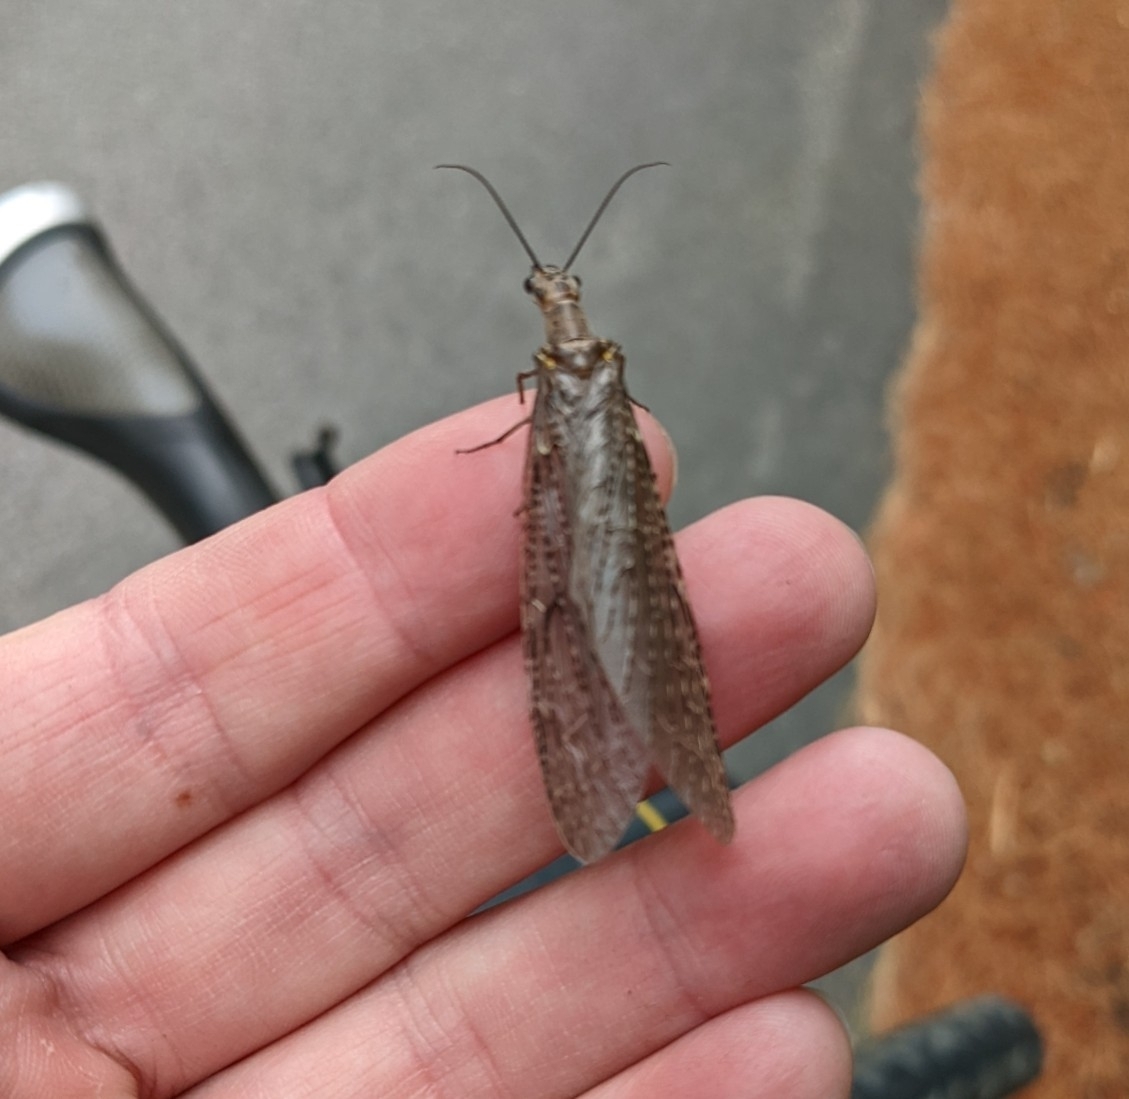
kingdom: Animalia
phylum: Arthropoda
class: Insecta
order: Megaloptera
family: Corydalidae
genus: Chauliodes
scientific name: Chauliodes rastricornis
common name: Spring fishfly
